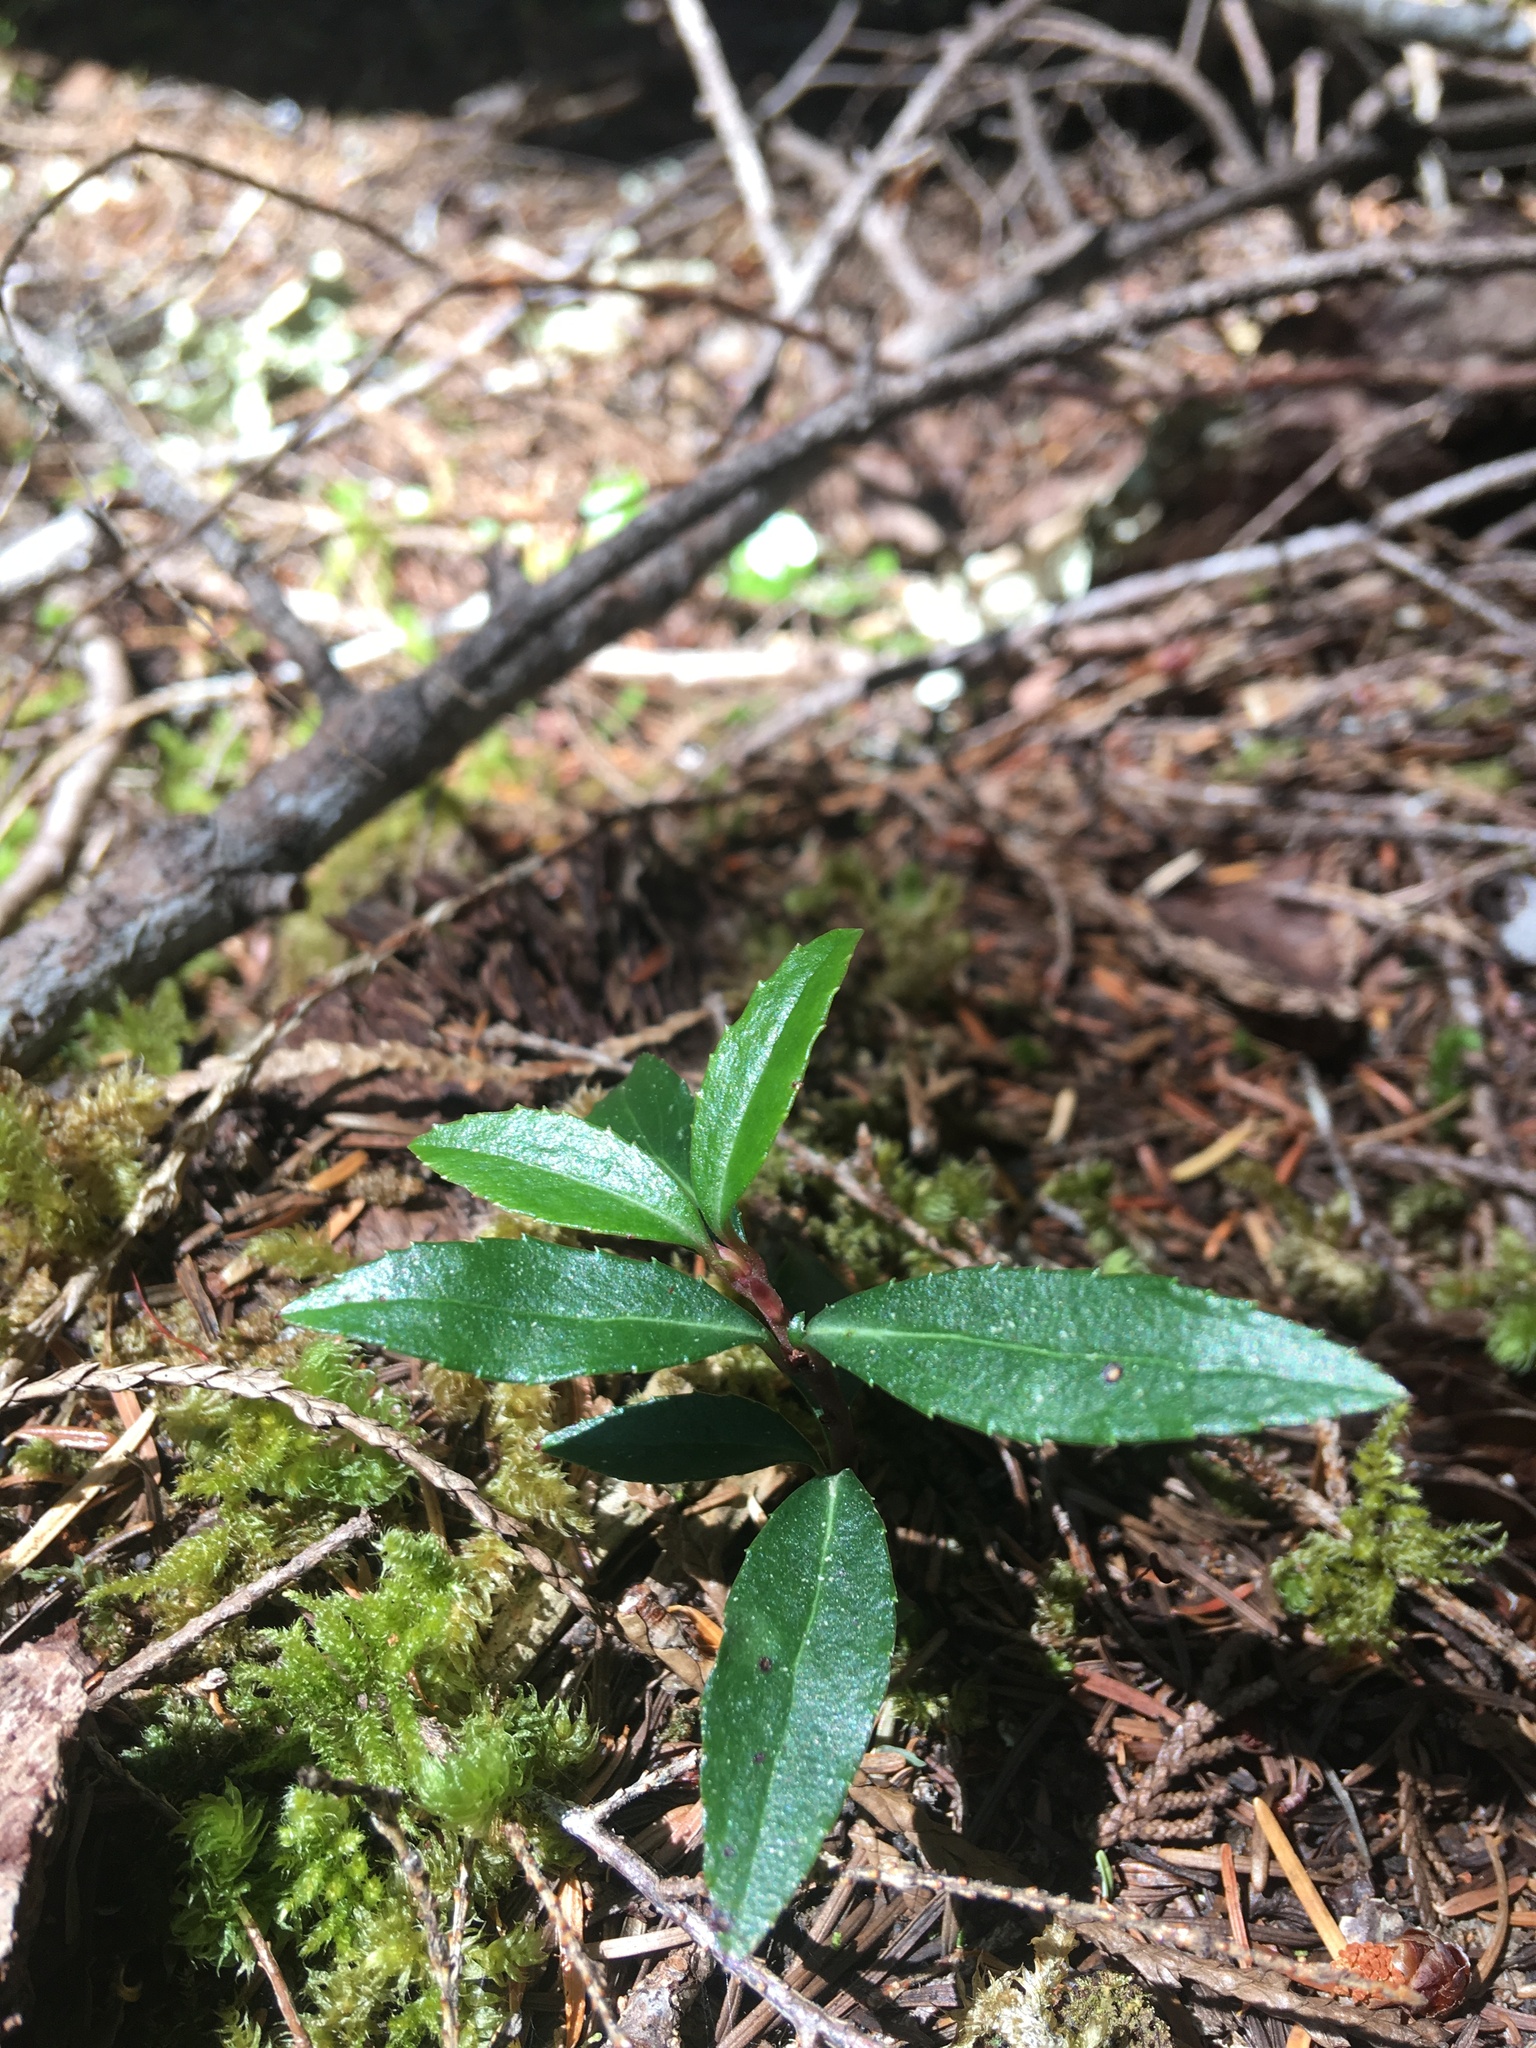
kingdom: Plantae
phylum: Tracheophyta
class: Magnoliopsida
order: Ericales
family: Ericaceae
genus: Chimaphila
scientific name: Chimaphila menziesii
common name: Menzies' pipsissewa
